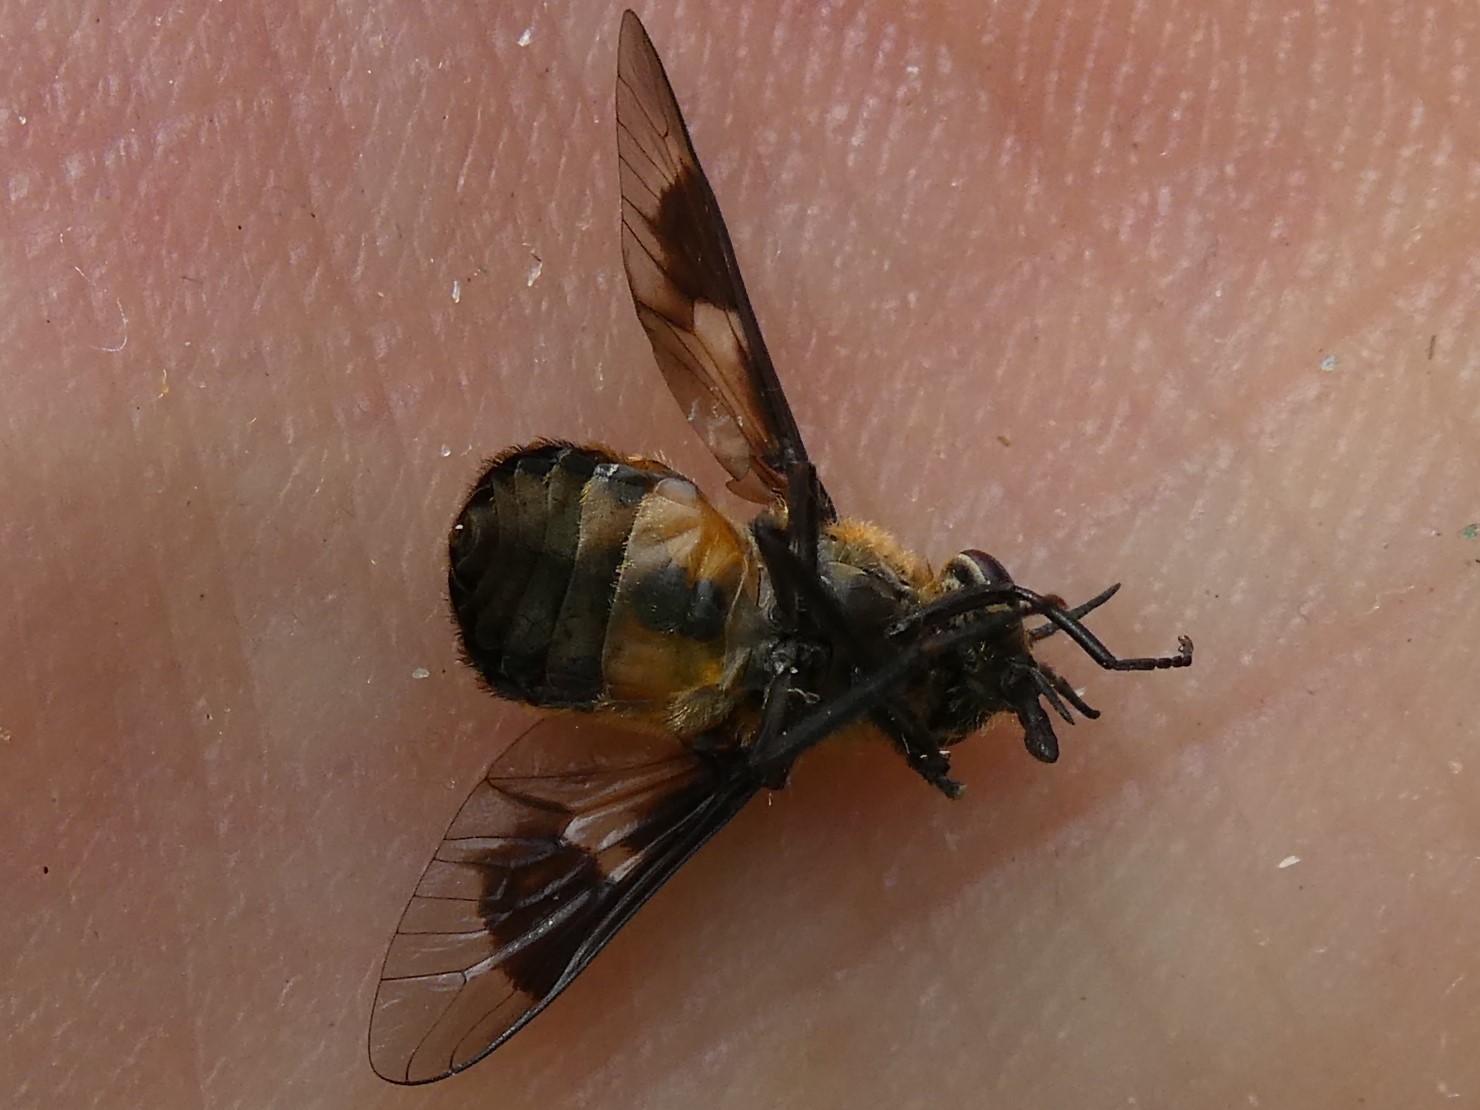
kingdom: Animalia
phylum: Arthropoda
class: Insecta
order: Diptera
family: Tabanidae
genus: Chrysops
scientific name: Chrysops cincticornis
